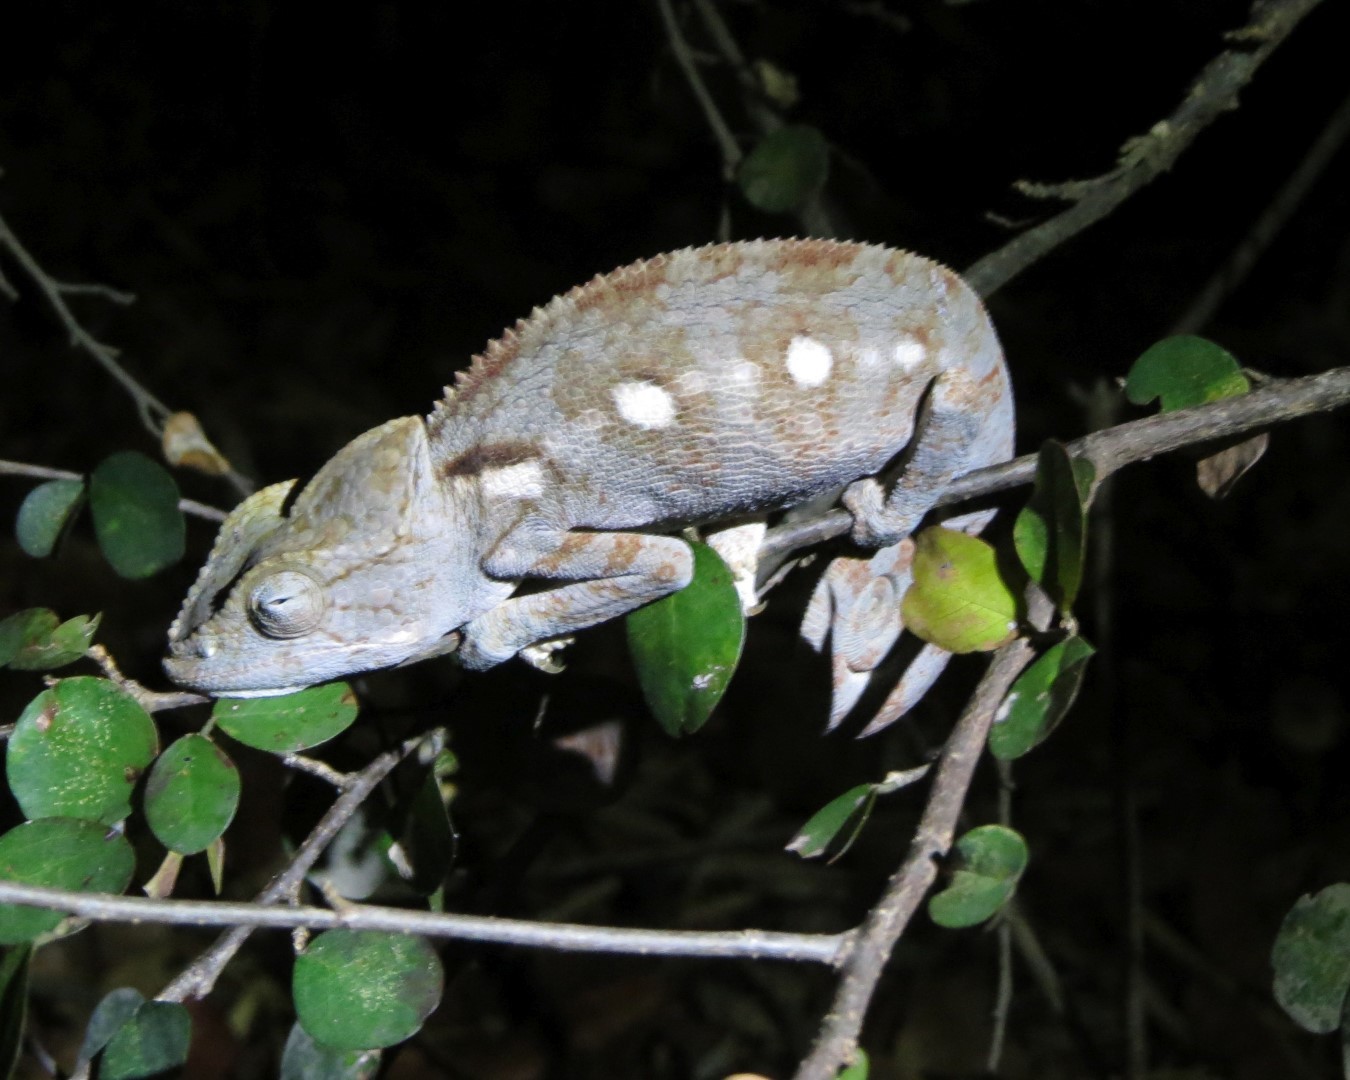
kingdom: Animalia
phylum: Chordata
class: Squamata
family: Chamaeleonidae
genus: Furcifer
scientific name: Furcifer oustaleti
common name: Oustalet's chameleon
